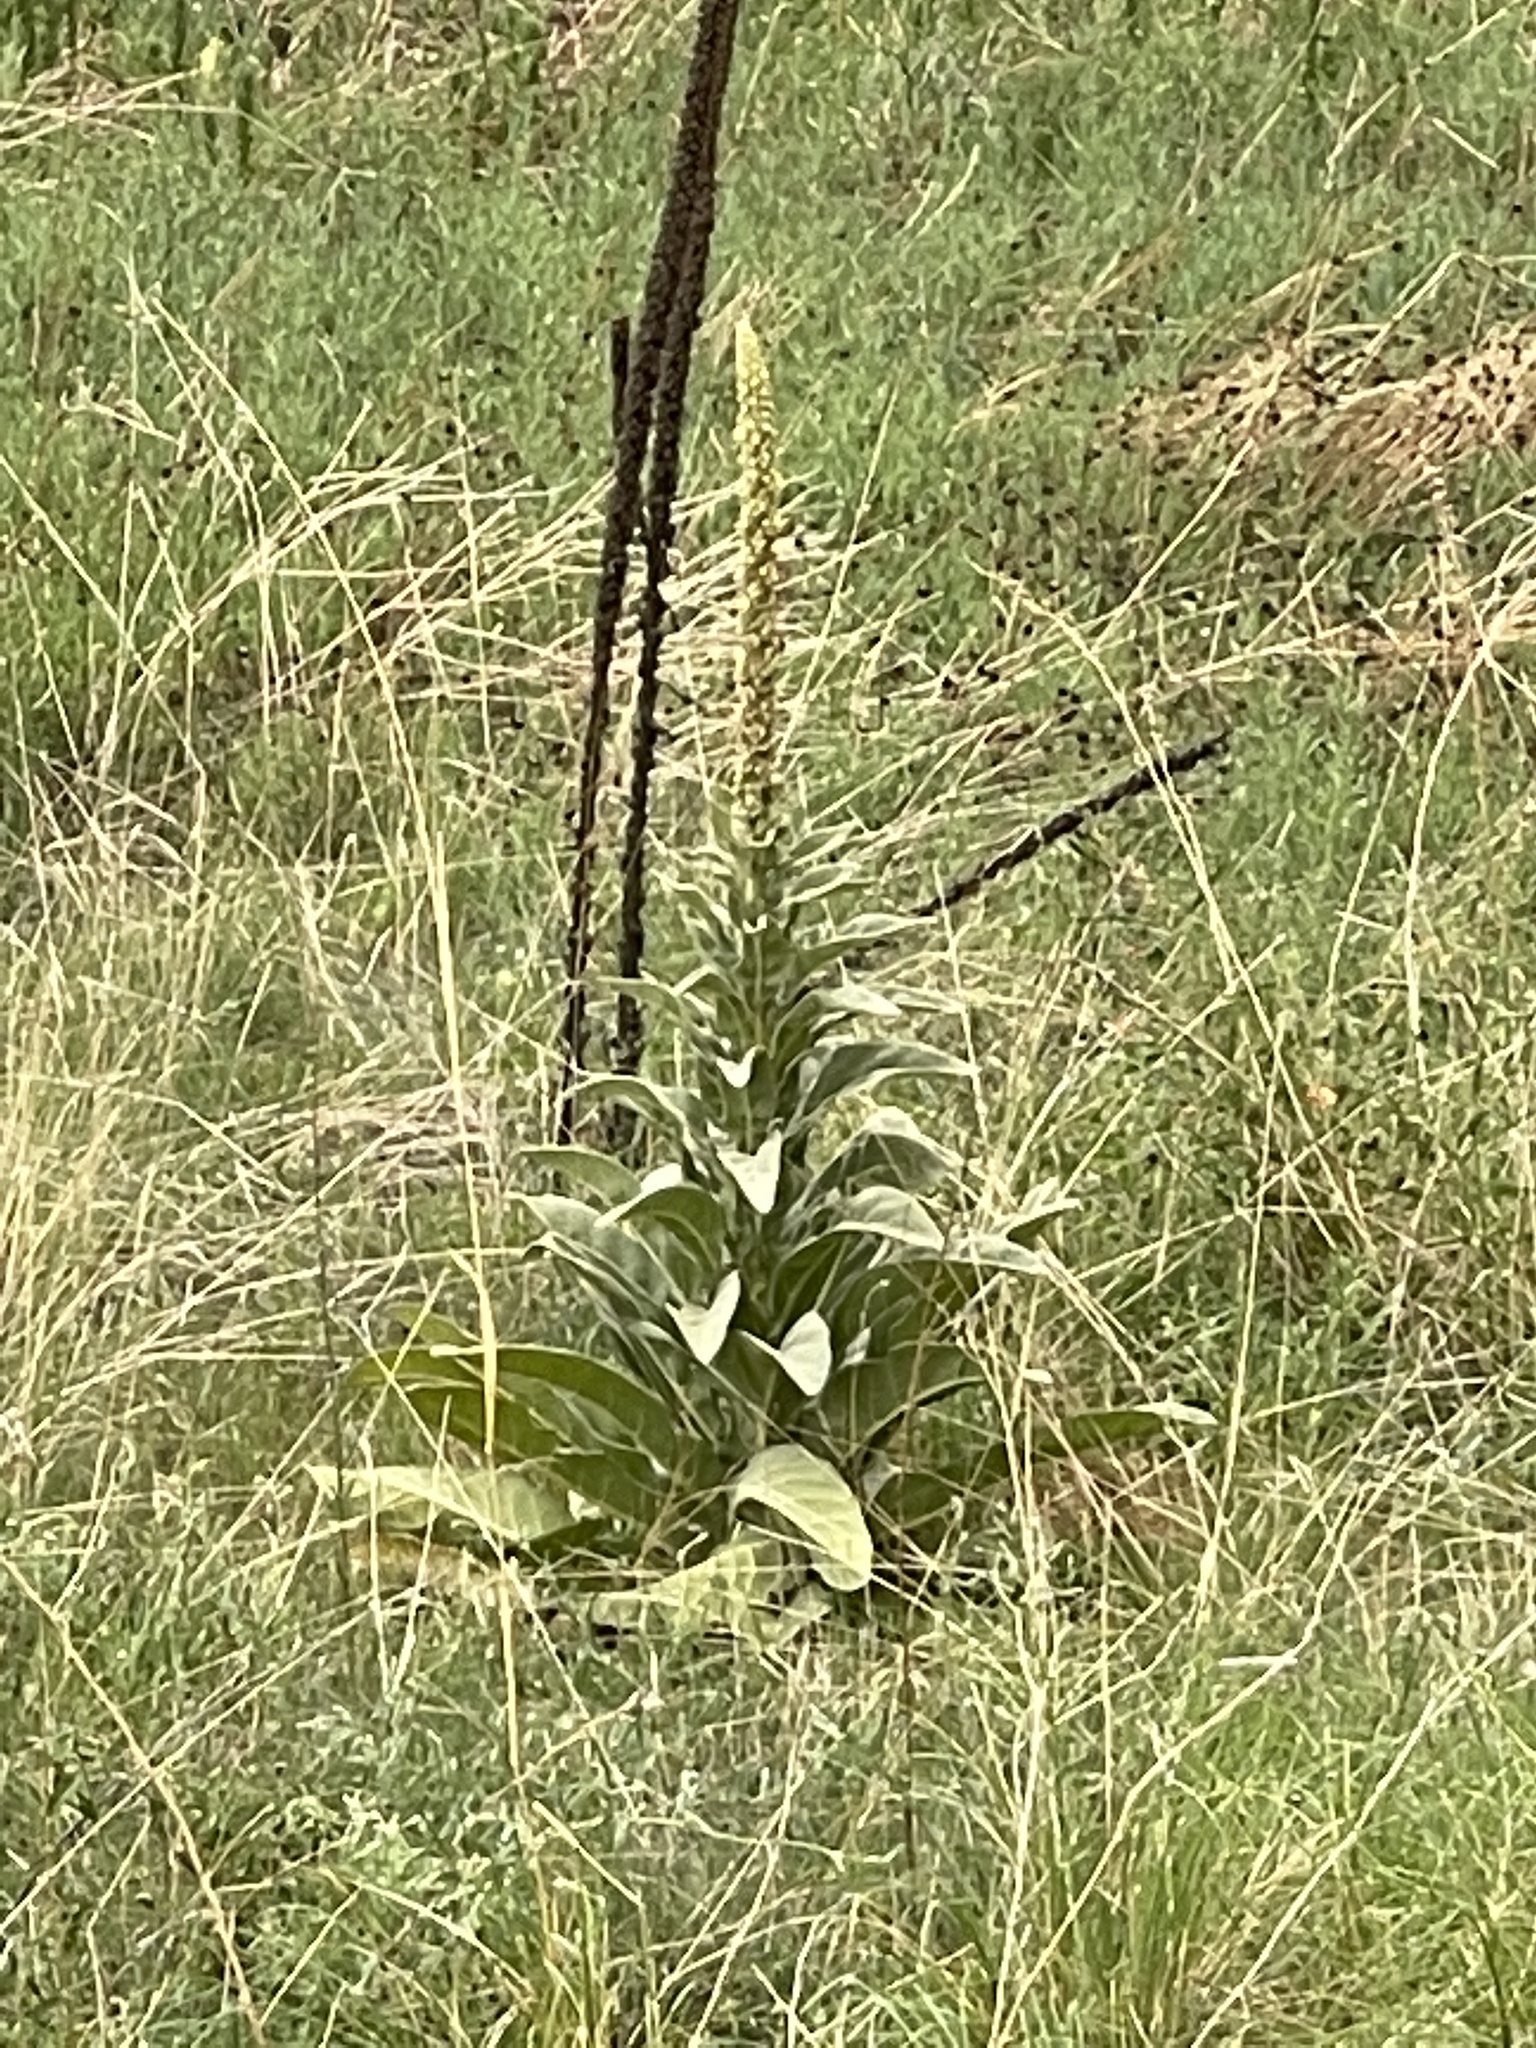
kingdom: Plantae
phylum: Tracheophyta
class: Magnoliopsida
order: Lamiales
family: Scrophulariaceae
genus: Verbascum
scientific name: Verbascum thapsus
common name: Common mullein
